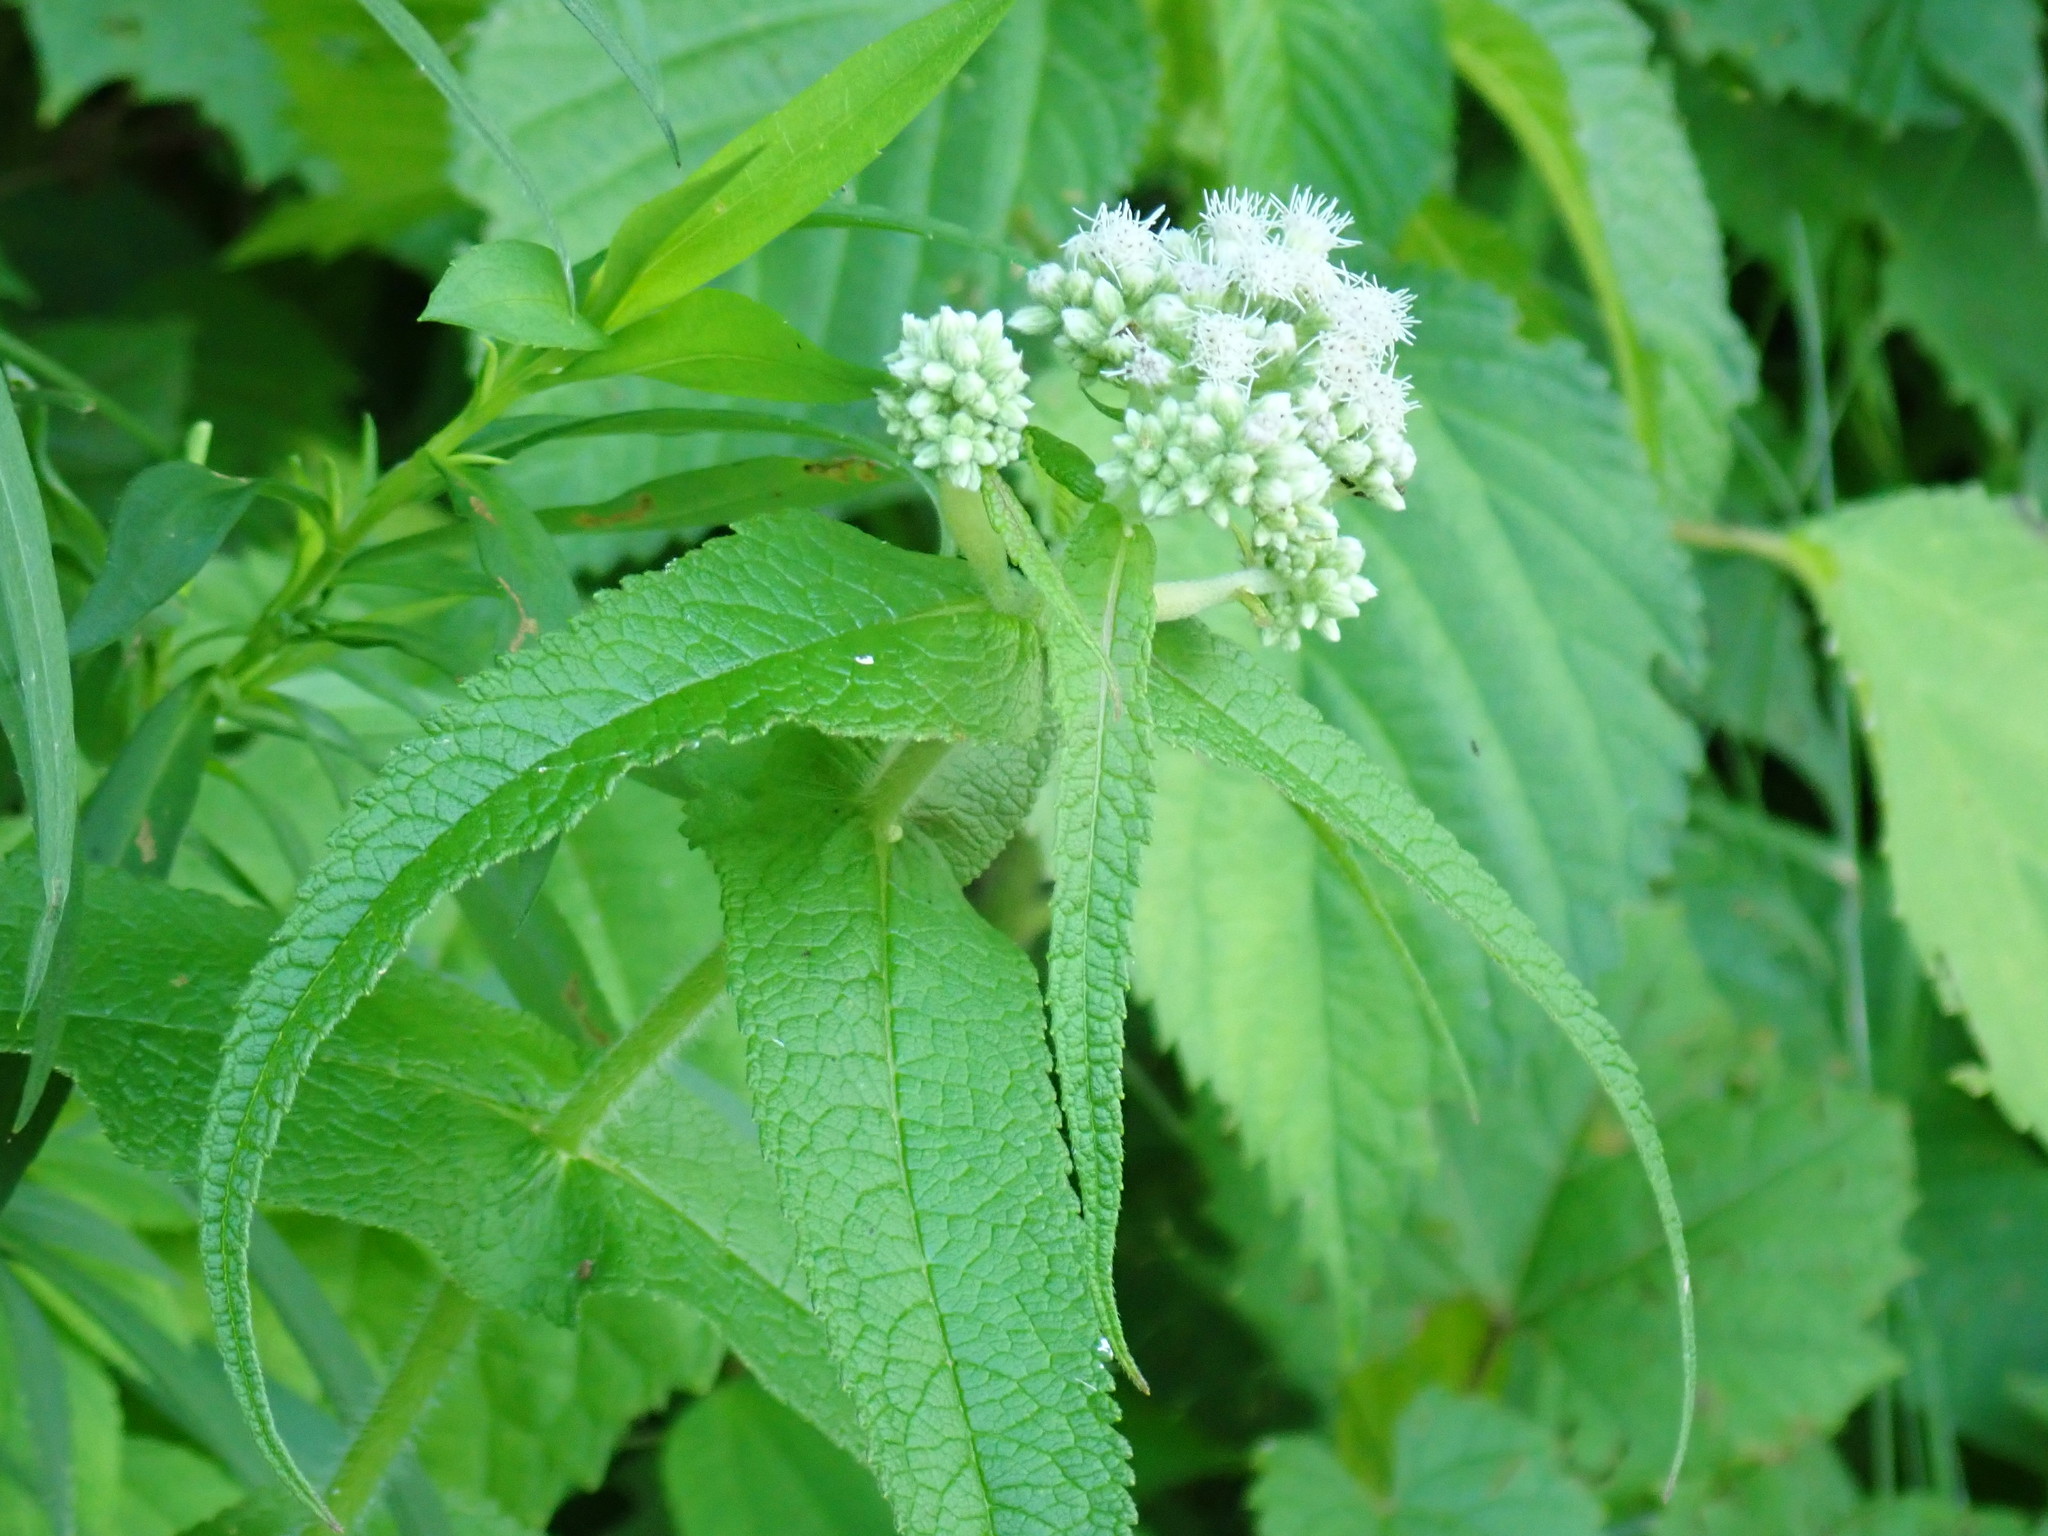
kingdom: Plantae
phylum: Tracheophyta
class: Magnoliopsida
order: Asterales
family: Asteraceae
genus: Eupatorium
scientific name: Eupatorium perfoliatum
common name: Boneset
